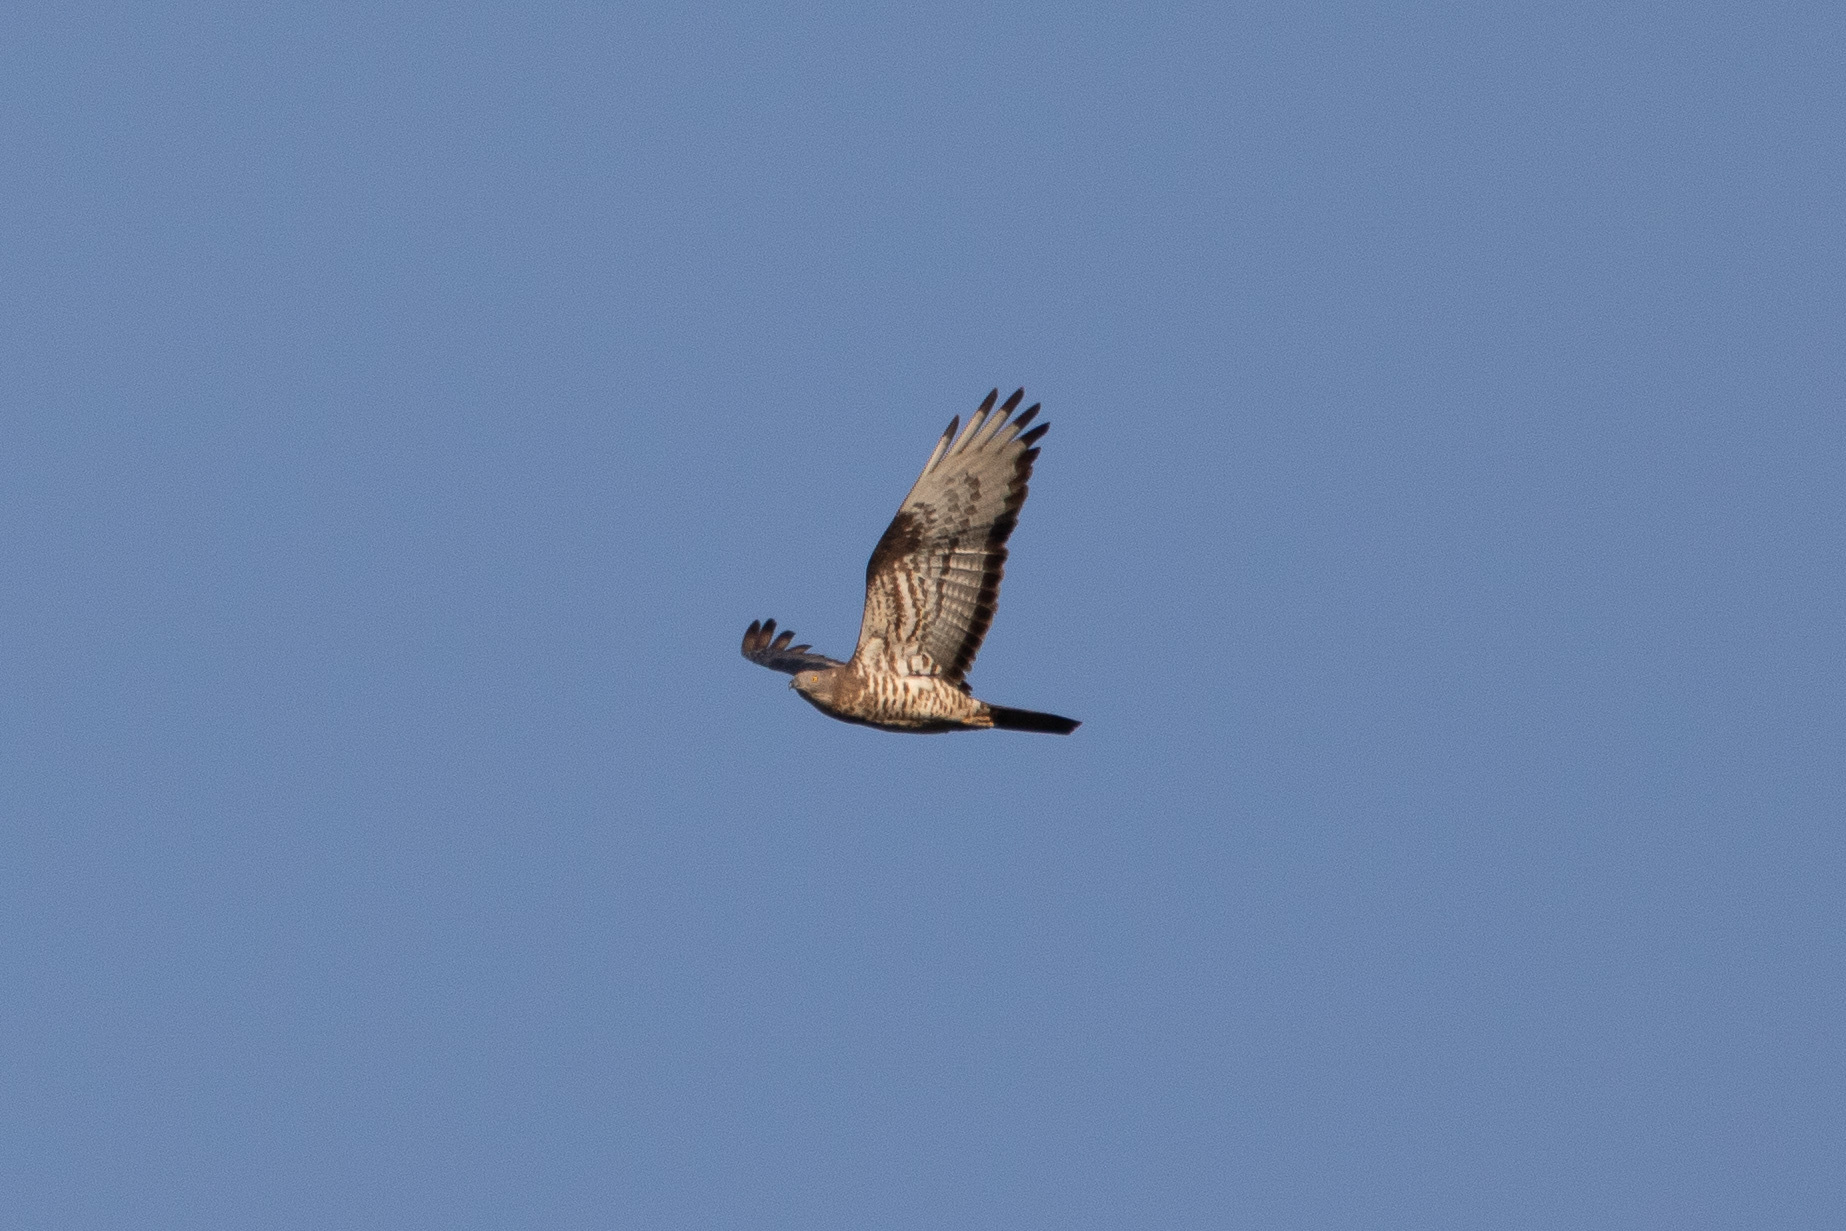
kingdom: Animalia
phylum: Chordata
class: Aves
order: Accipitriformes
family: Accipitridae
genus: Pernis
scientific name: Pernis apivorus
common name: European honey buzzard
